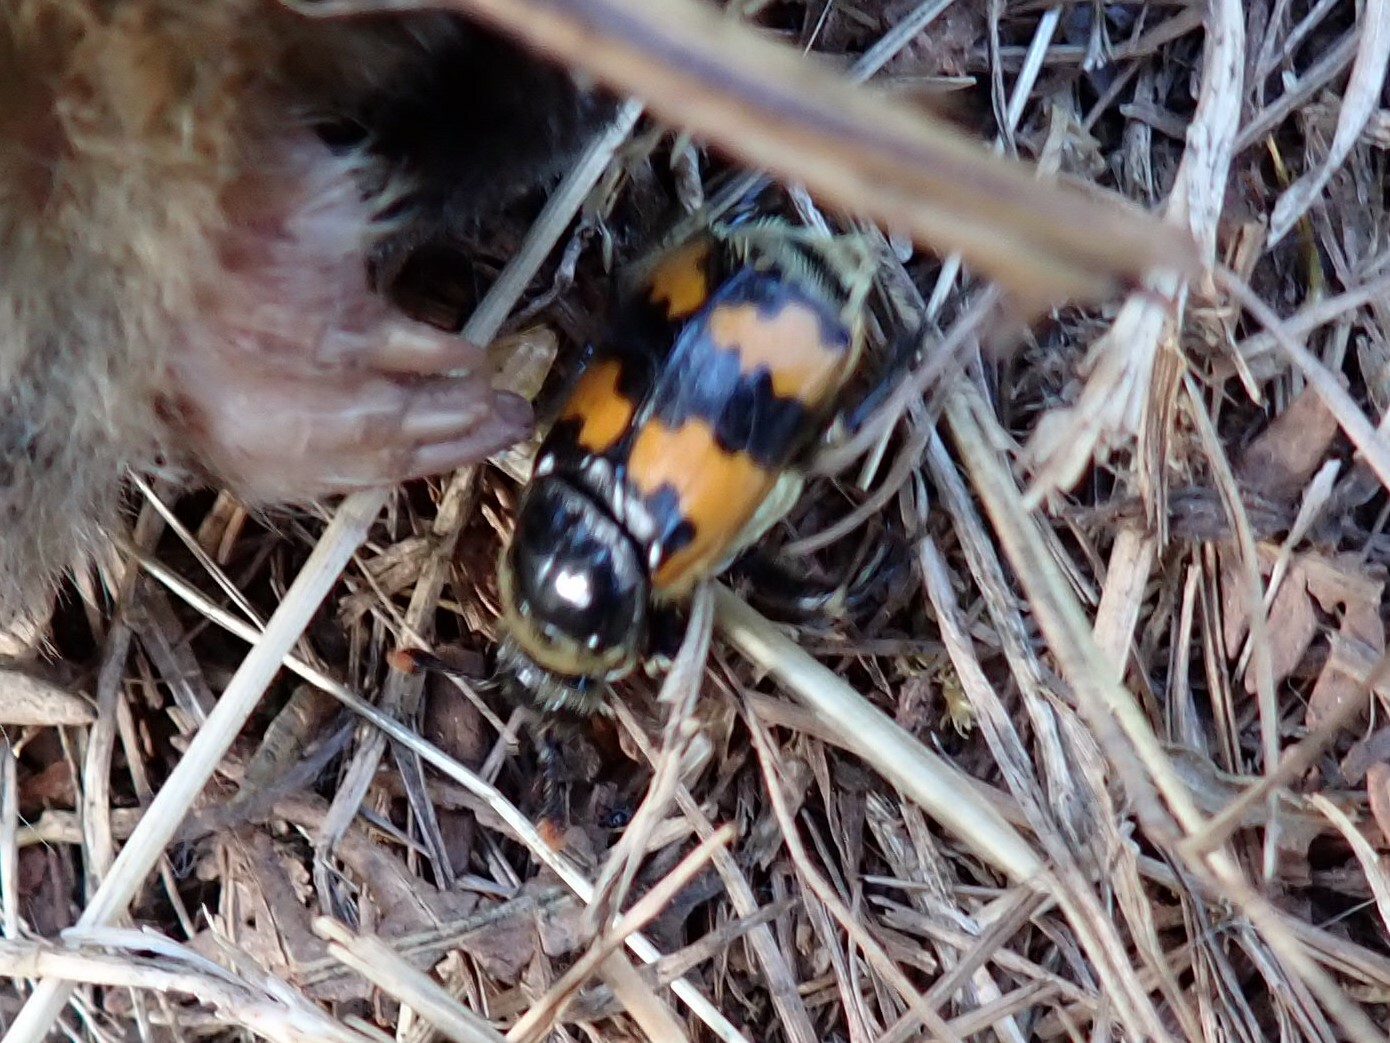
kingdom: Animalia
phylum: Arthropoda
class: Insecta
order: Coleoptera
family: Staphylinidae
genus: Nicrophorus
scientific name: Nicrophorus vespillo
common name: Common burying beetle
